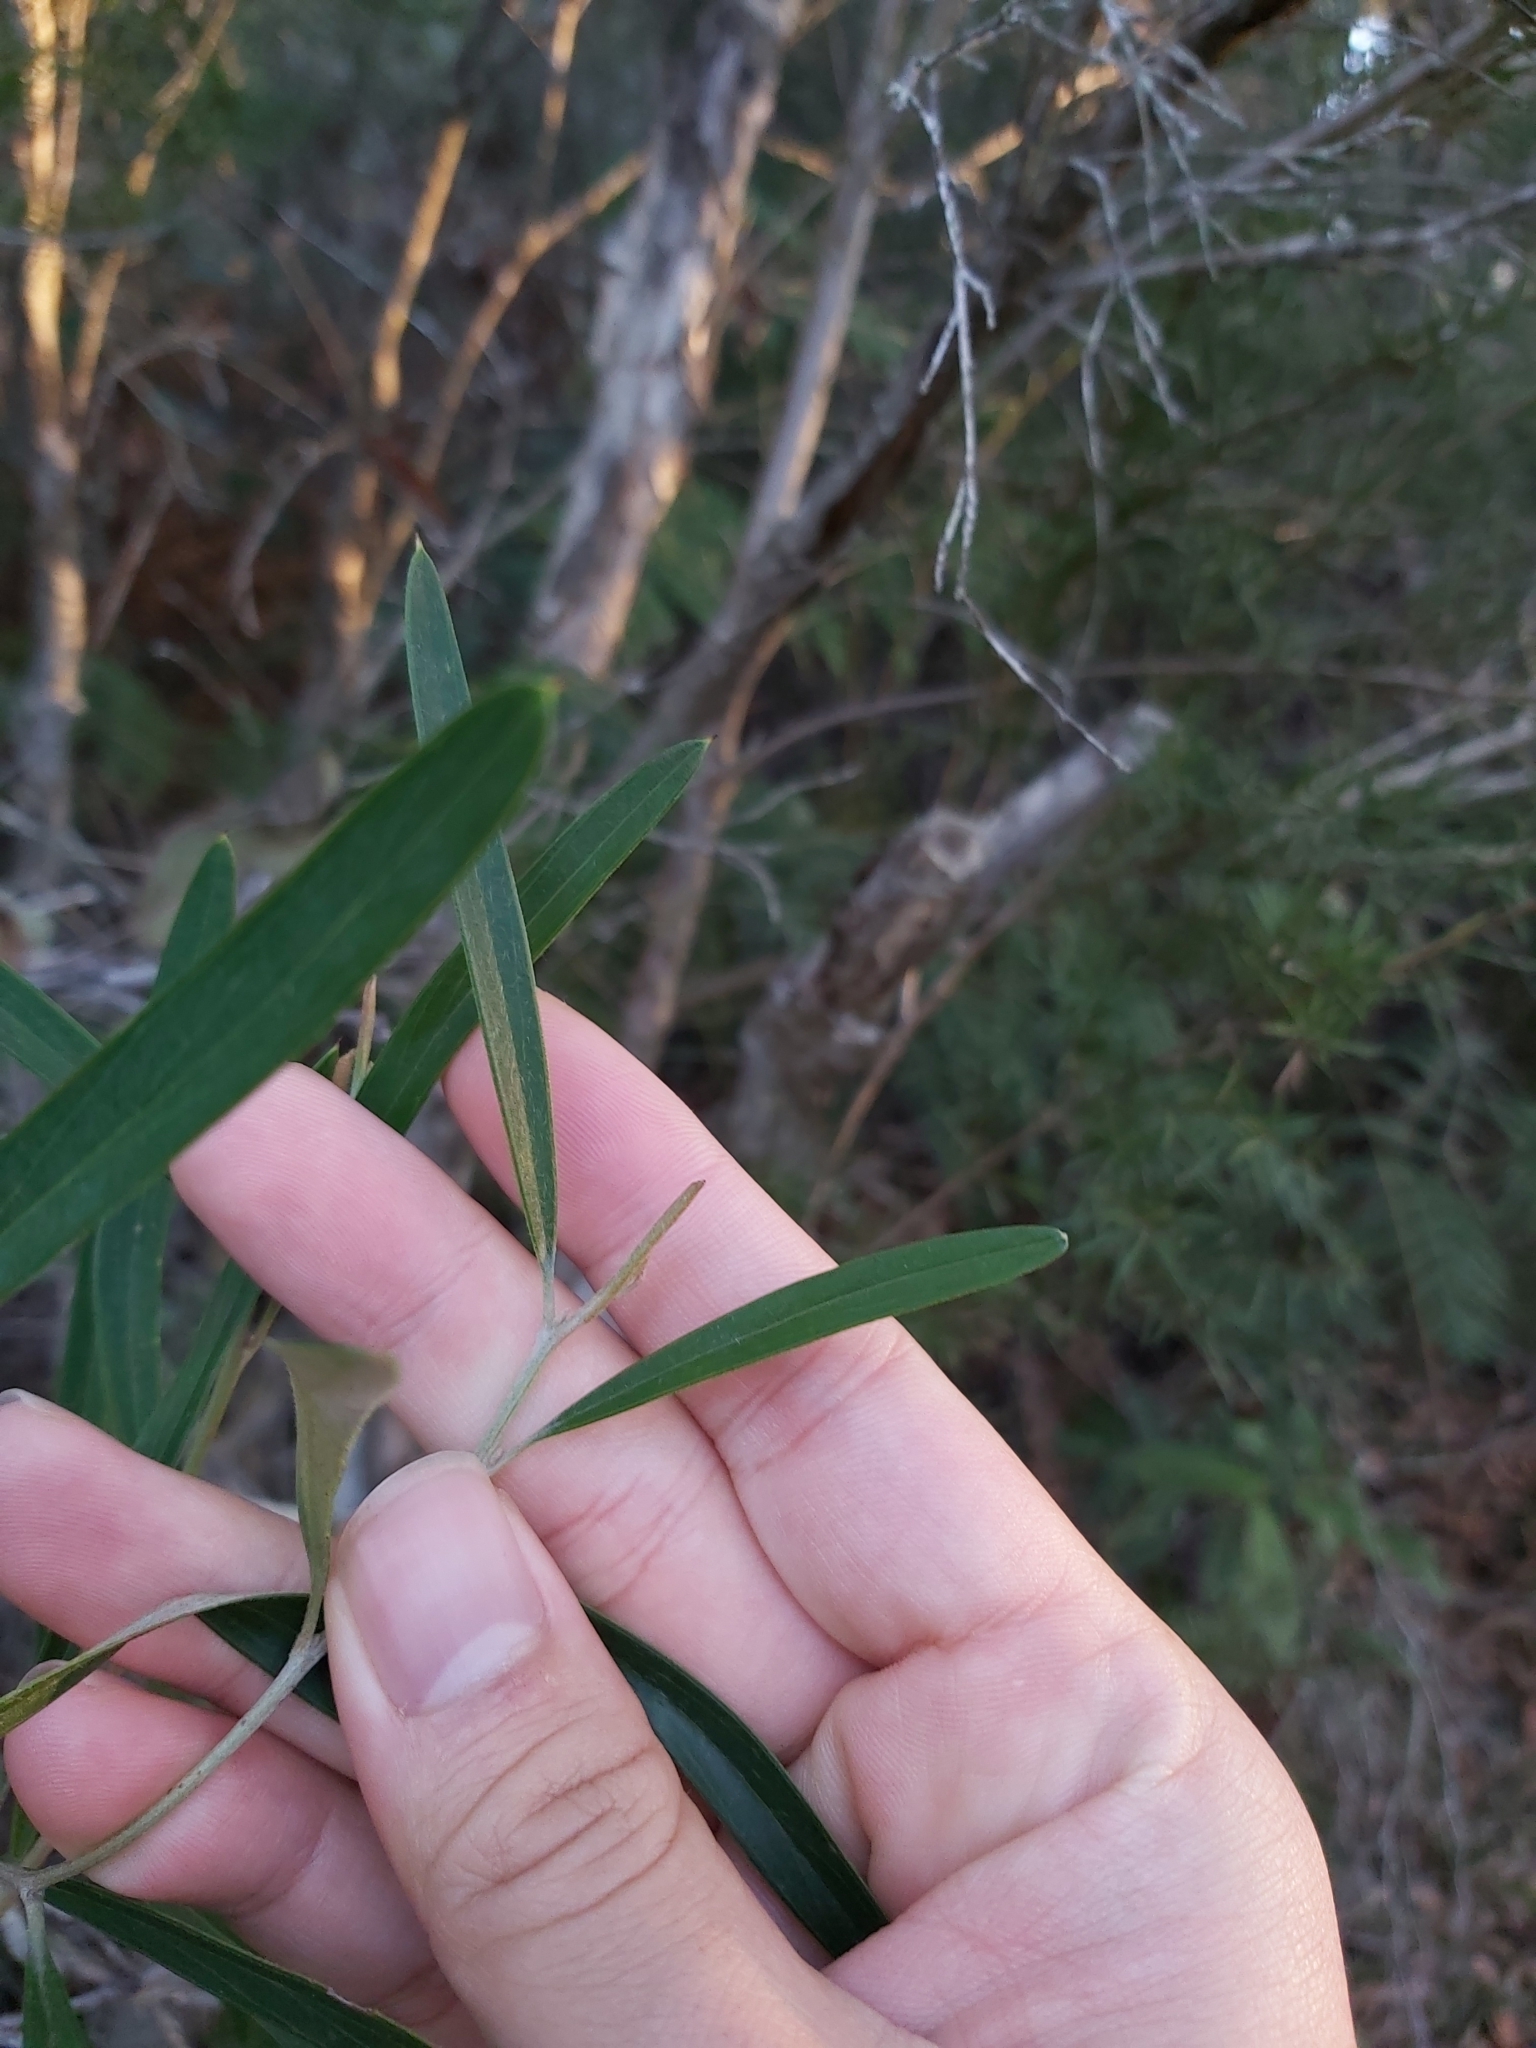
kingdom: Plantae
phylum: Tracheophyta
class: Magnoliopsida
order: Proteales
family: Proteaceae
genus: Grevillea
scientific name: Grevillea oleoides
